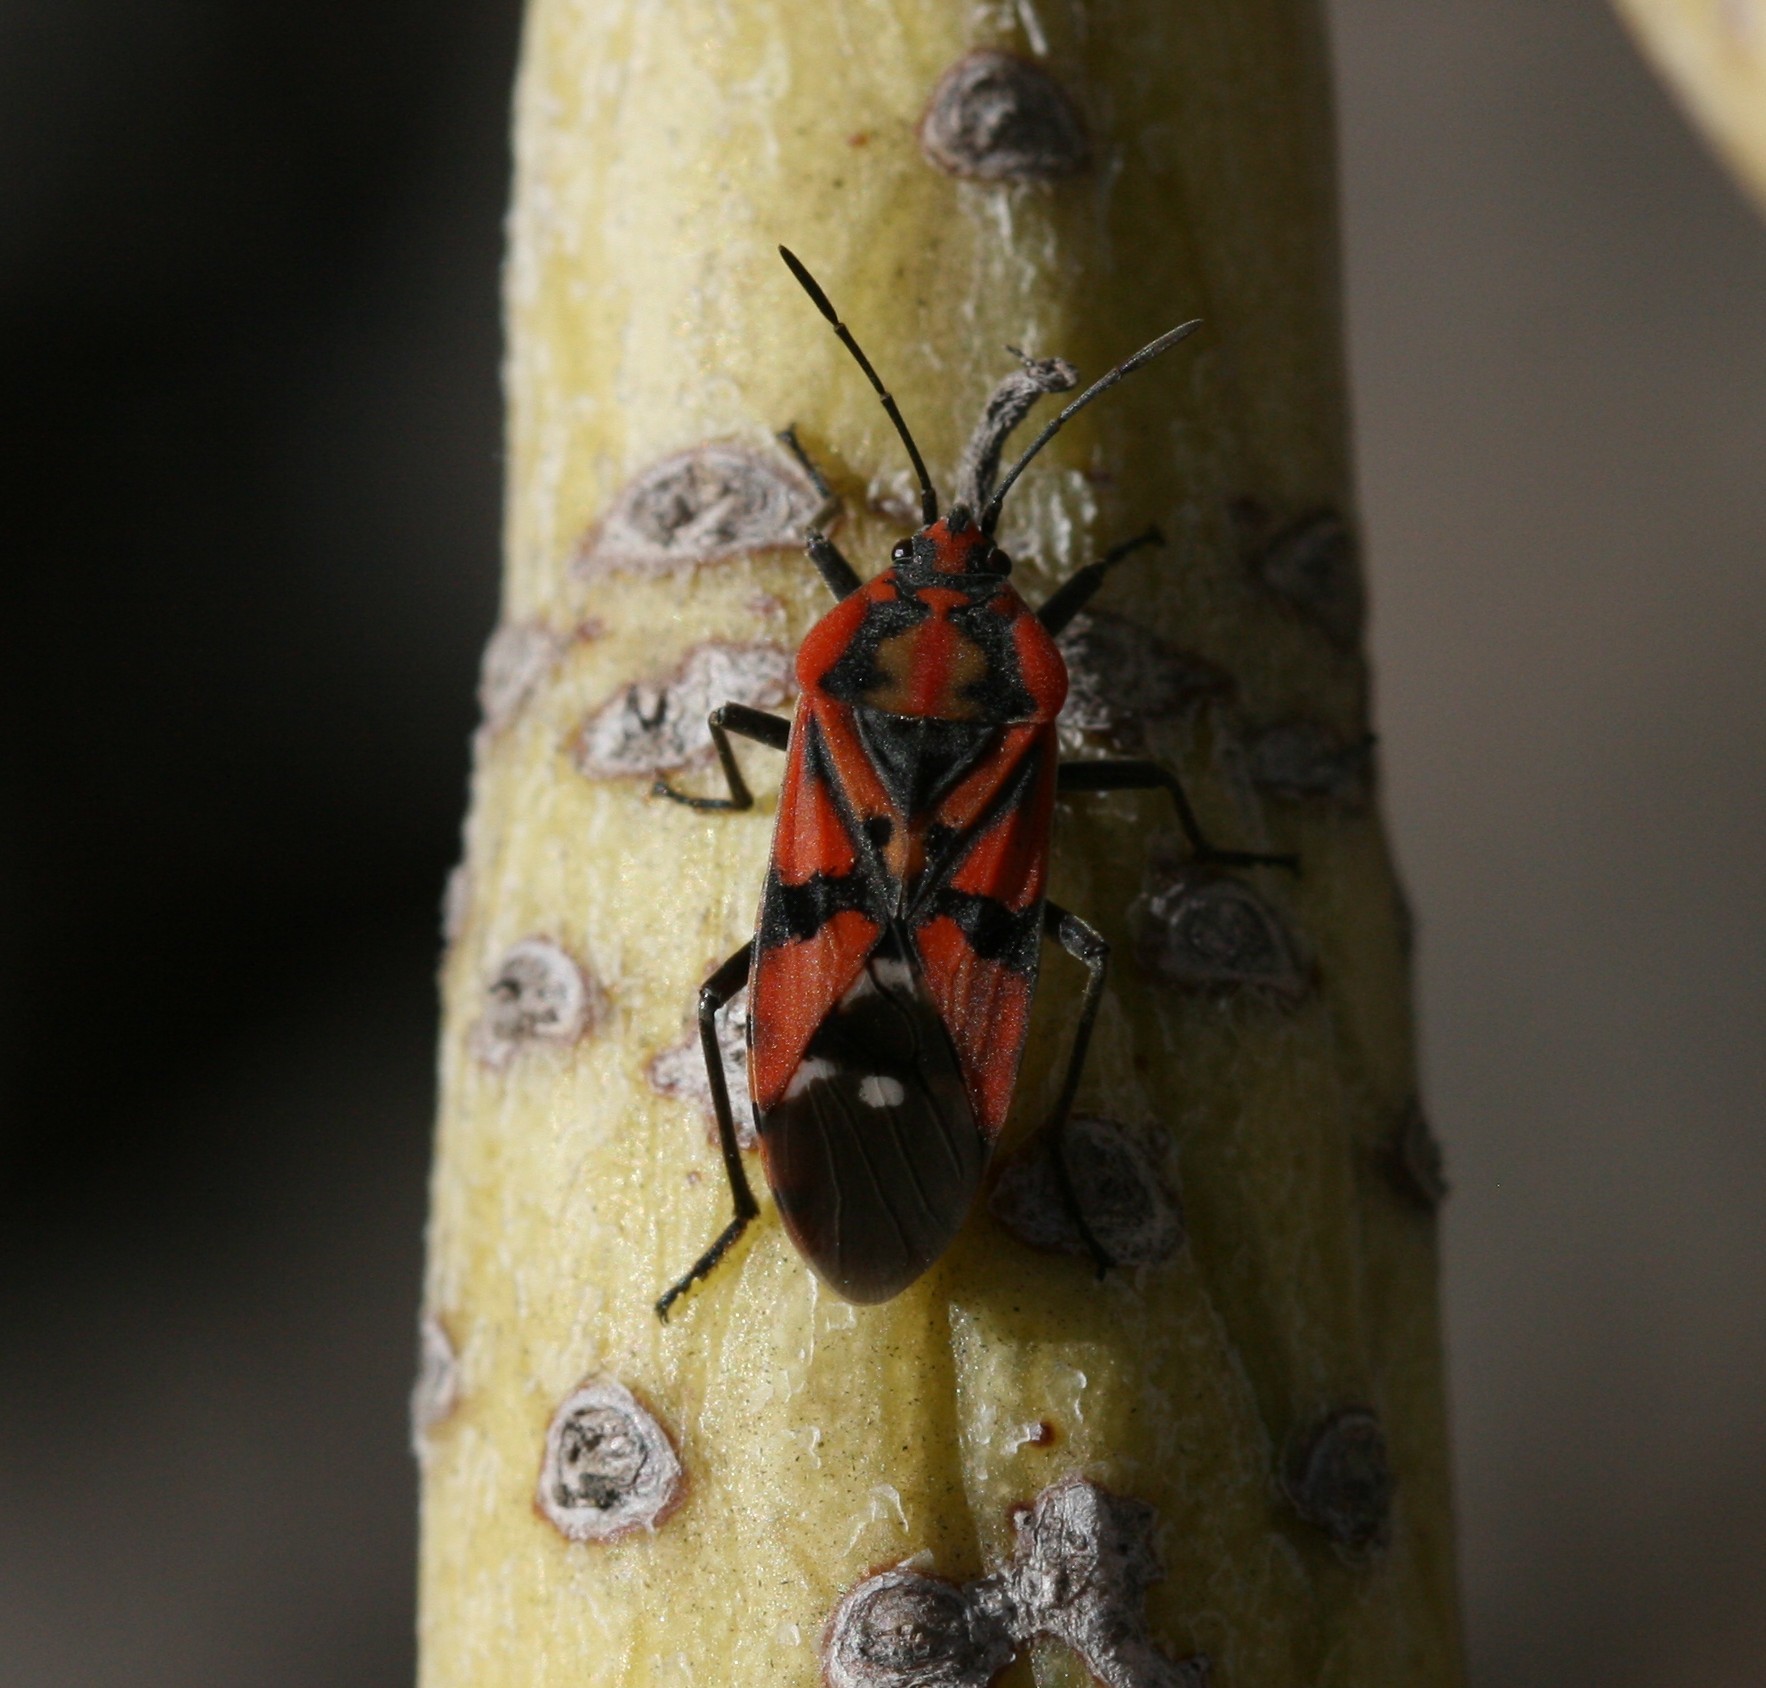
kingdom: Animalia
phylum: Arthropoda
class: Insecta
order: Hemiptera
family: Lygaeidae
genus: Spilostethus
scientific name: Spilostethus pandurus
